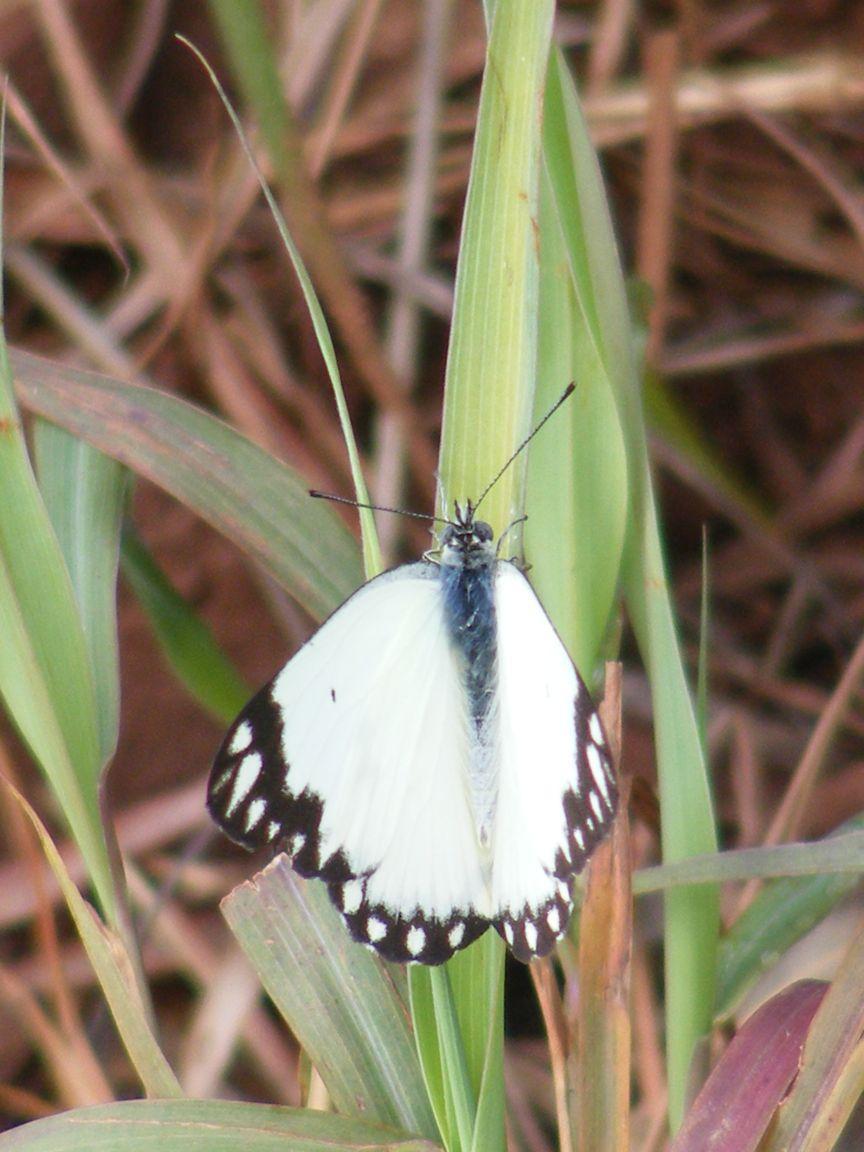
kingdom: Animalia
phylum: Arthropoda
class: Insecta
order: Lepidoptera
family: Pieridae
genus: Belenois
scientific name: Belenois creona
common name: African caper white
